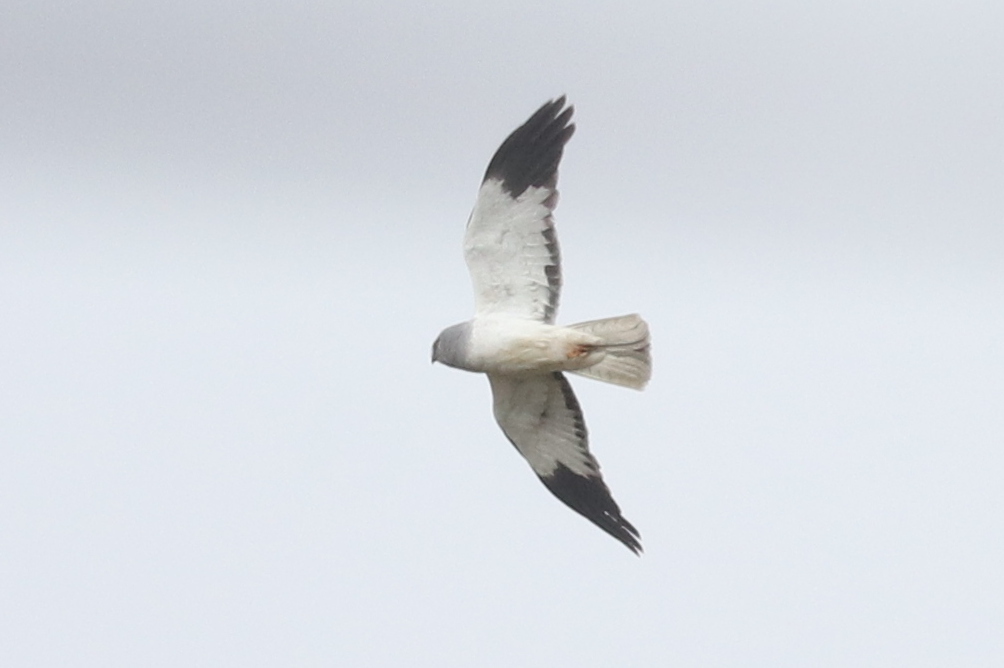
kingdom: Animalia
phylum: Chordata
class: Aves
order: Accipitriformes
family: Accipitridae
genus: Circus
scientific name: Circus cyaneus
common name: Hen harrier
